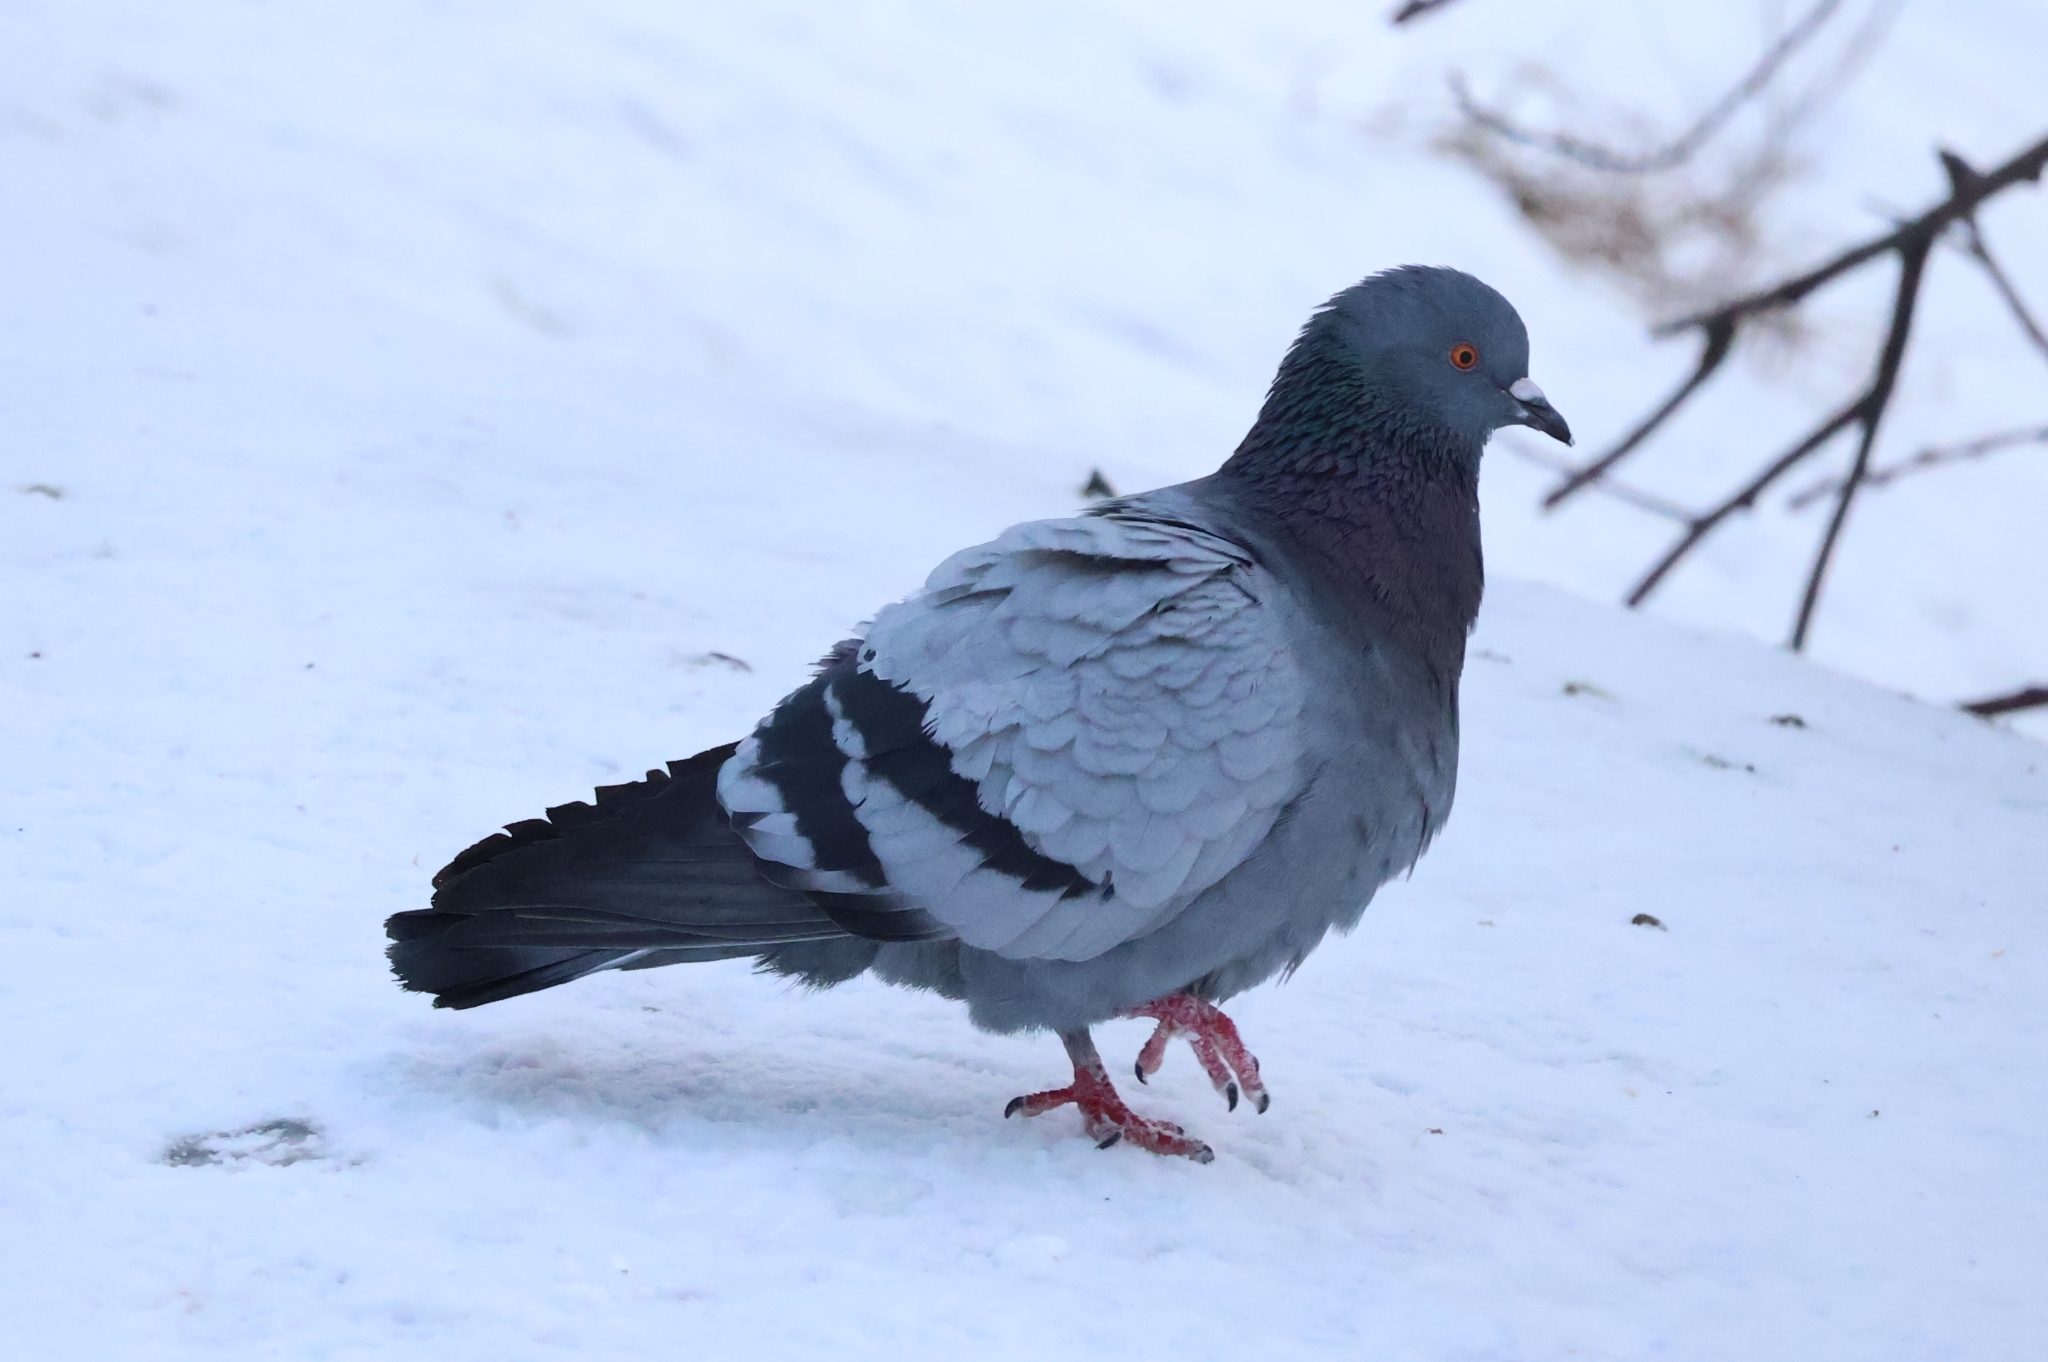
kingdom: Animalia
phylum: Chordata
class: Aves
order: Columbiformes
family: Columbidae
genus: Columba
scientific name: Columba livia
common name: Rock pigeon
